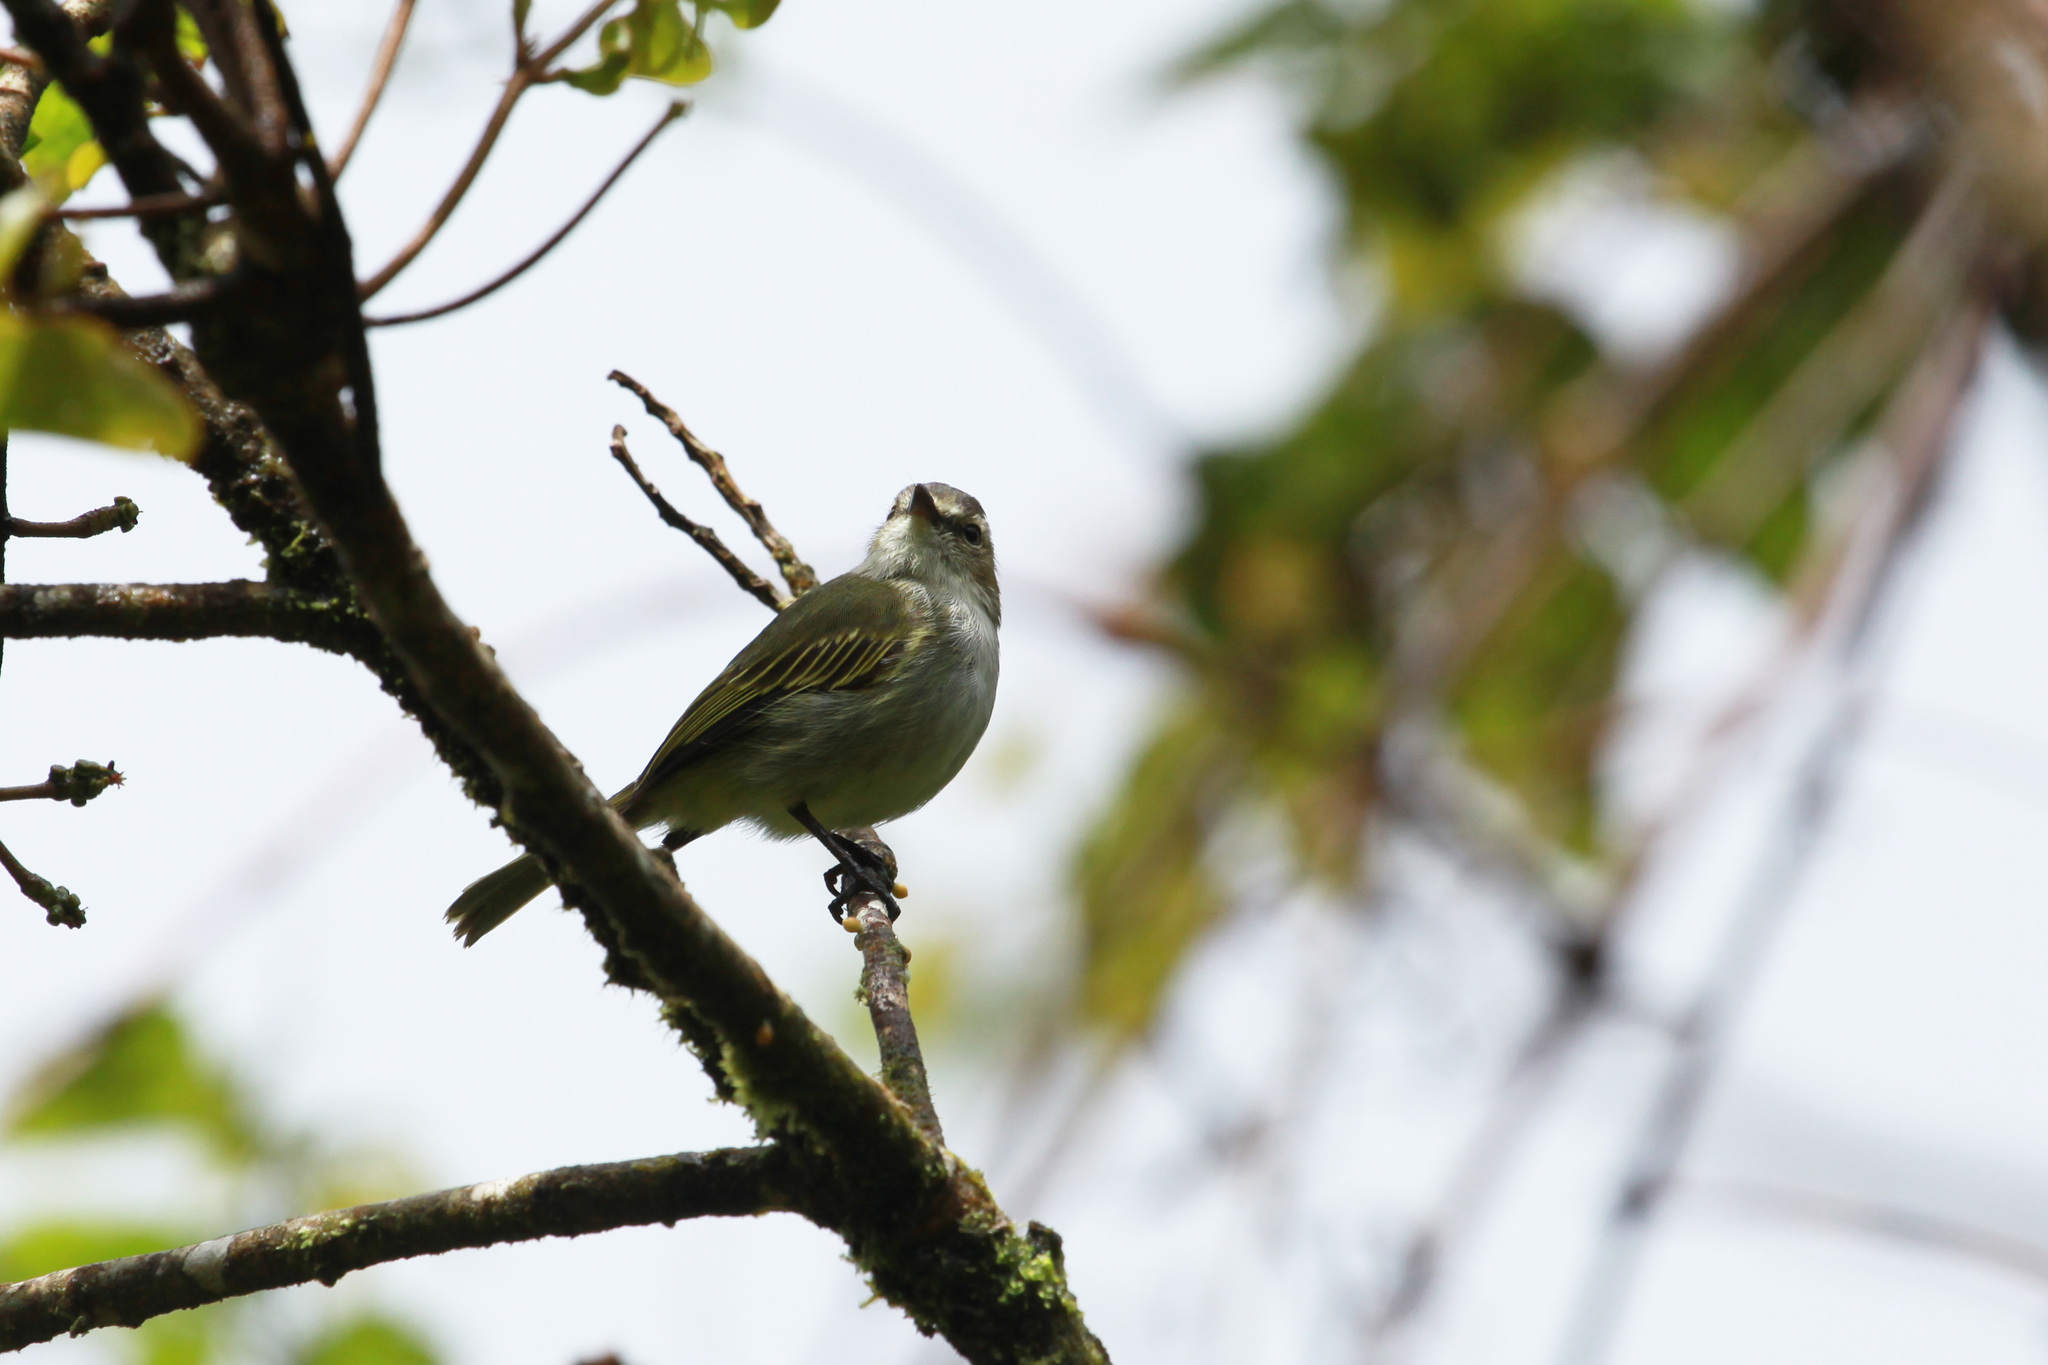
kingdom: Animalia
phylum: Chordata
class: Aves
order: Passeriformes
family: Tyrannidae
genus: Zimmerius
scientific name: Zimmerius vilissimus
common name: Paltry tyrannulet
